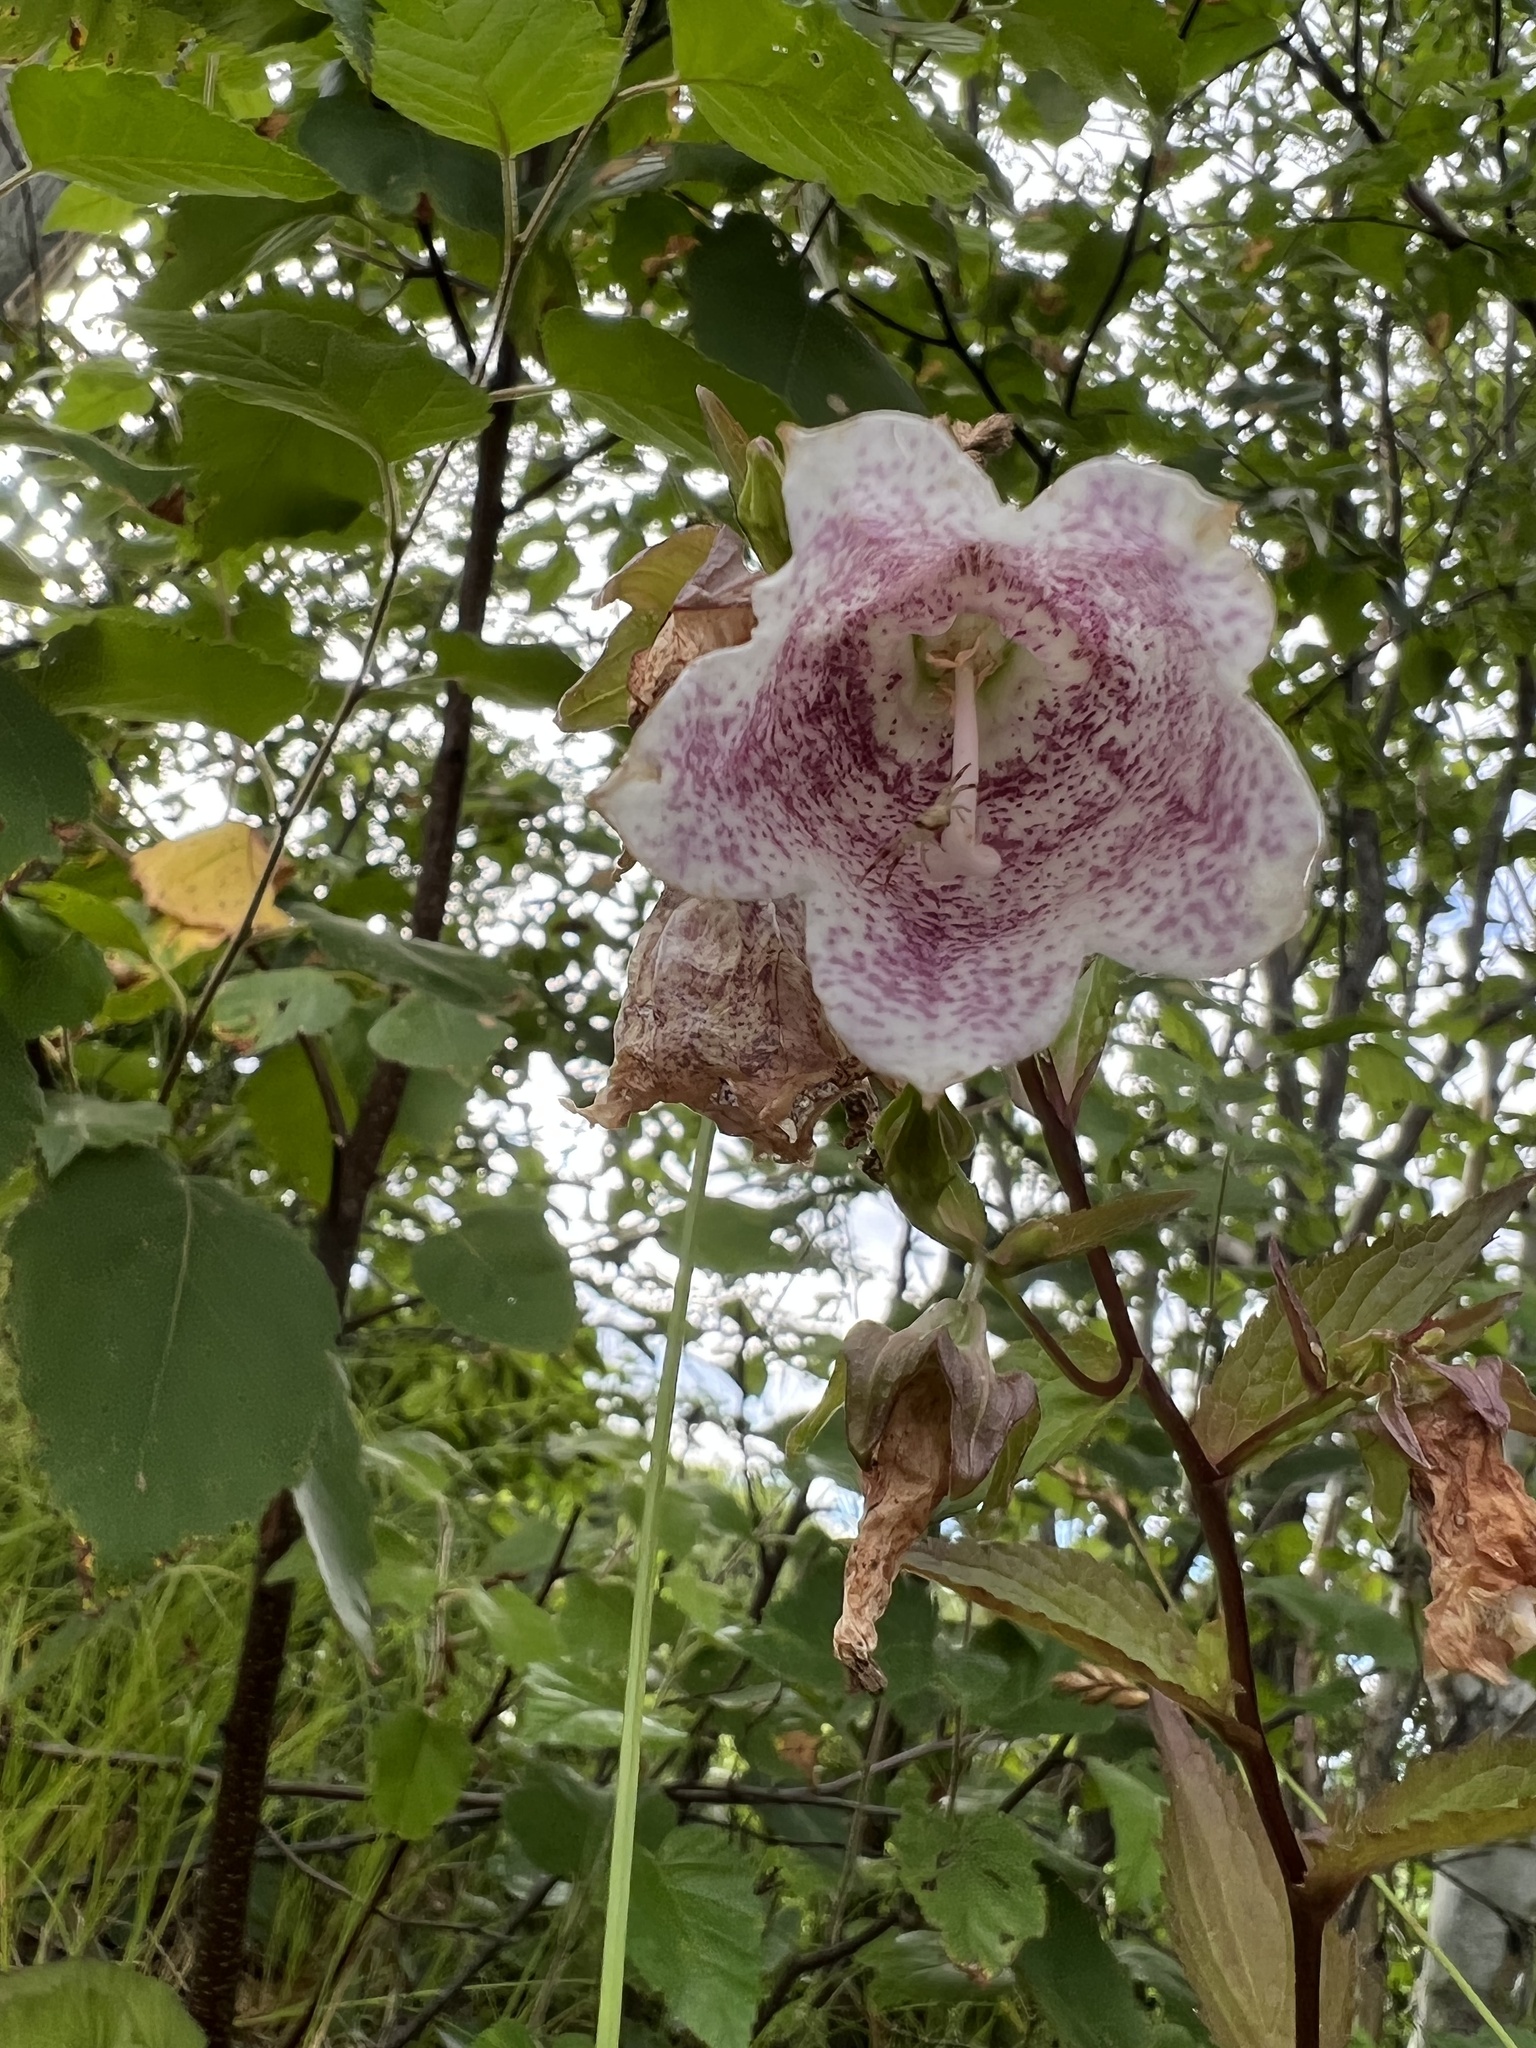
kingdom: Plantae
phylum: Tracheophyta
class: Magnoliopsida
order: Asterales
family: Campanulaceae
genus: Campanula
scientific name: Campanula punctata
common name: Spotted bellflower
